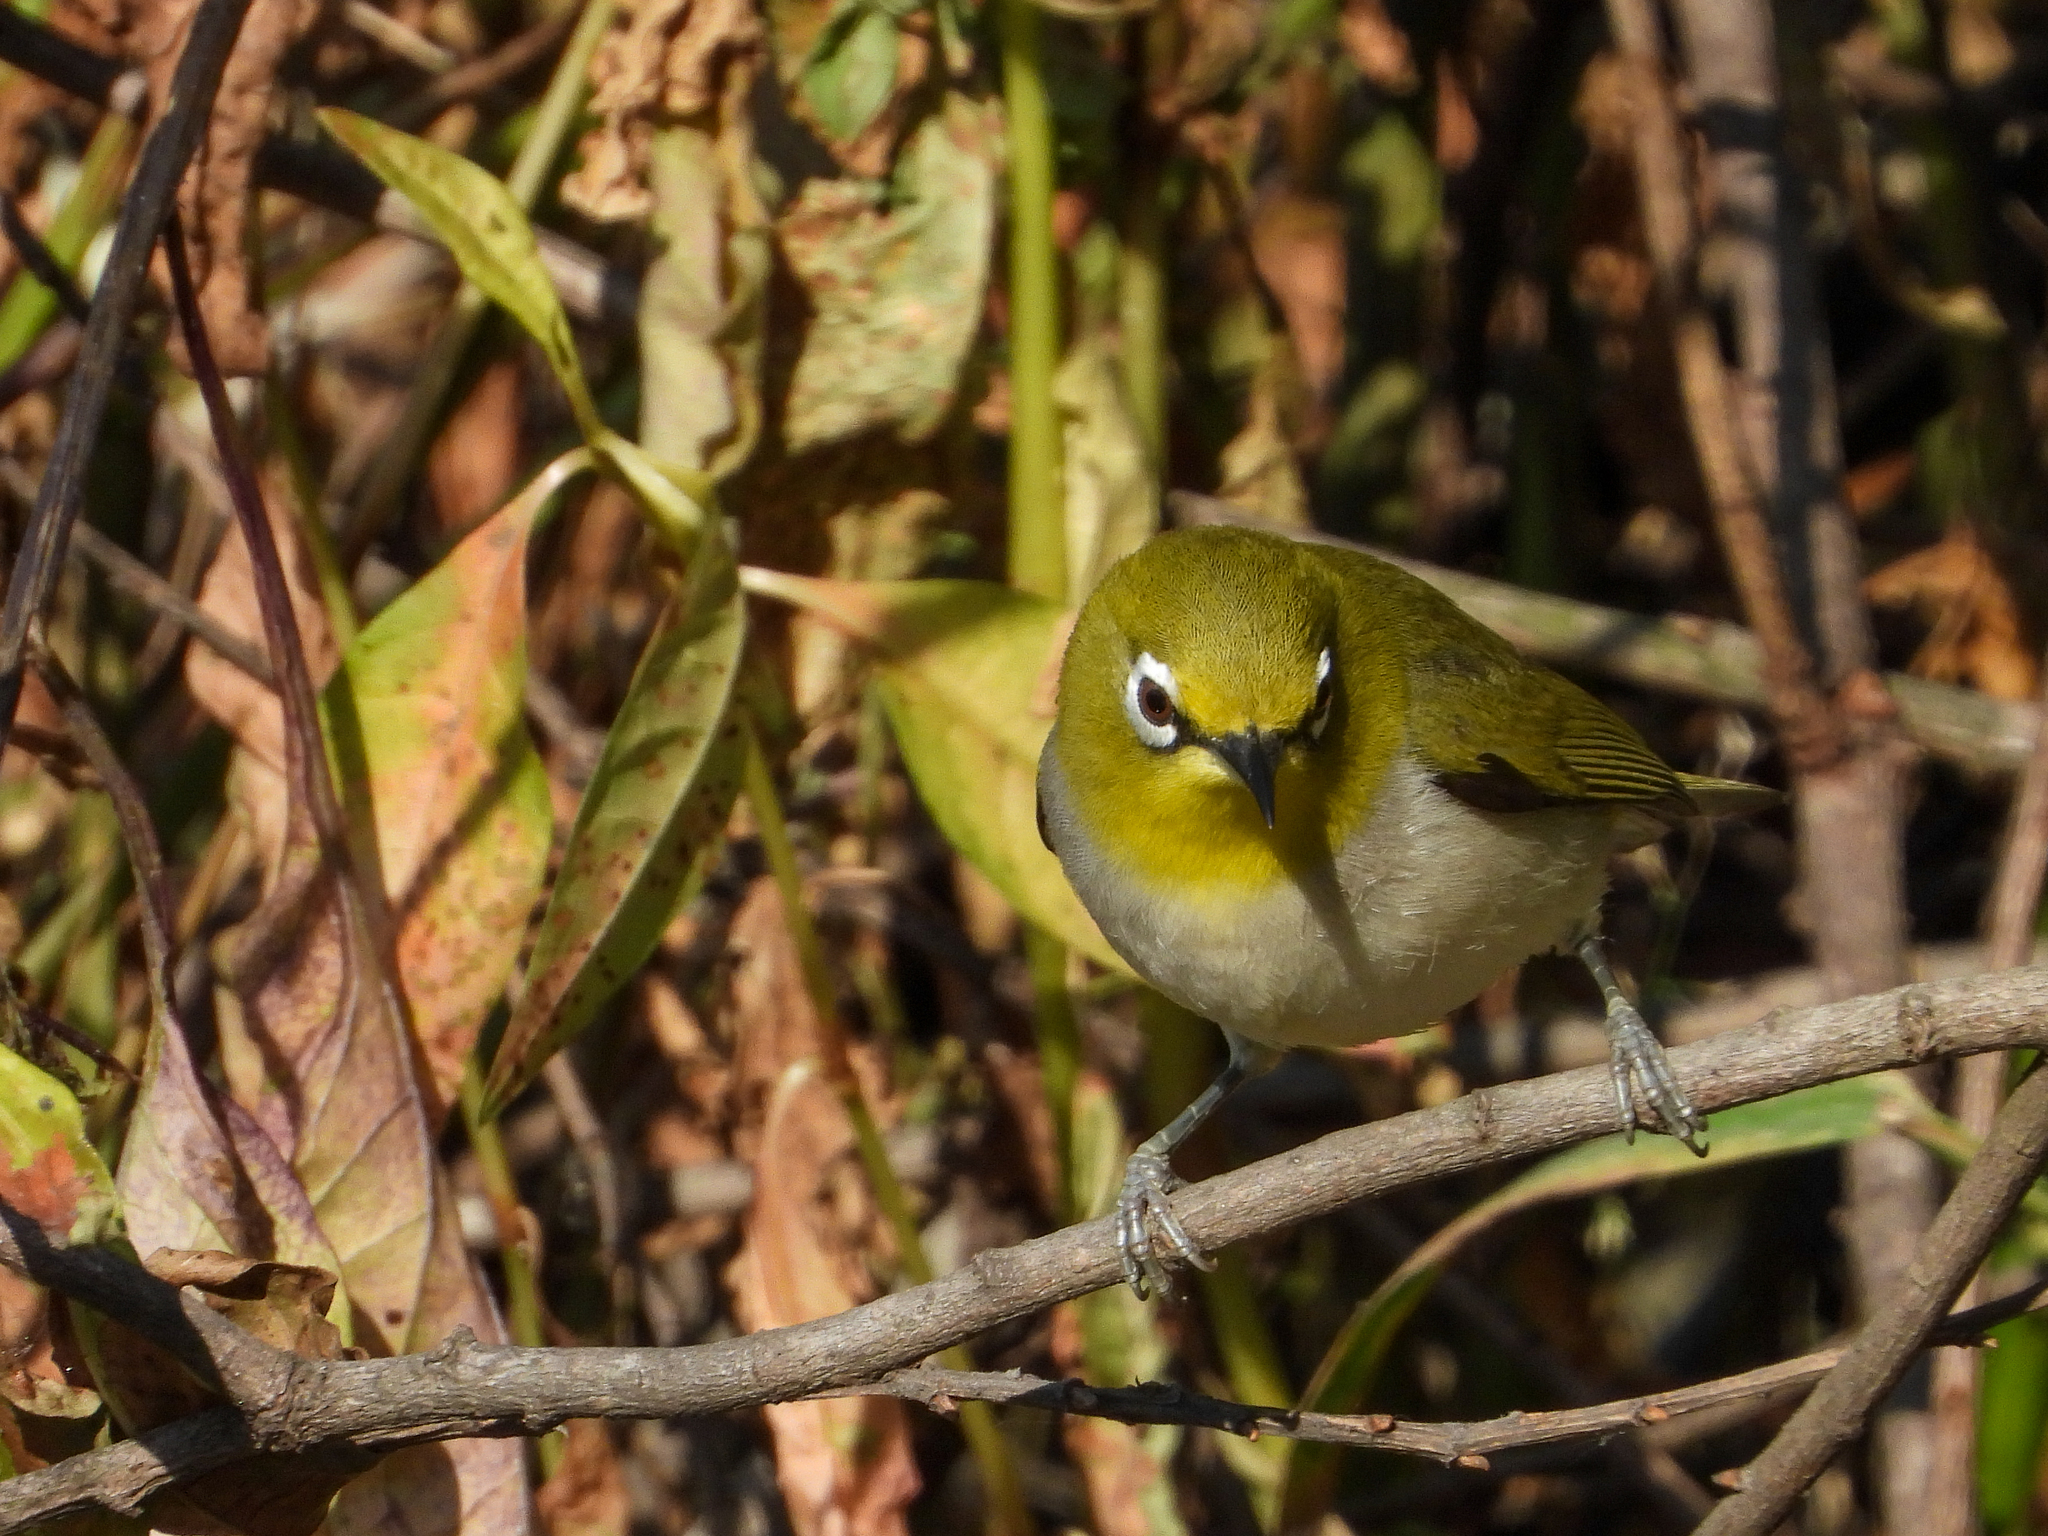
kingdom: Animalia
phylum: Chordata
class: Aves
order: Passeriformes
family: Zosteropidae
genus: Zosterops
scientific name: Zosterops simplex
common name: Swinhoe's white-eye
